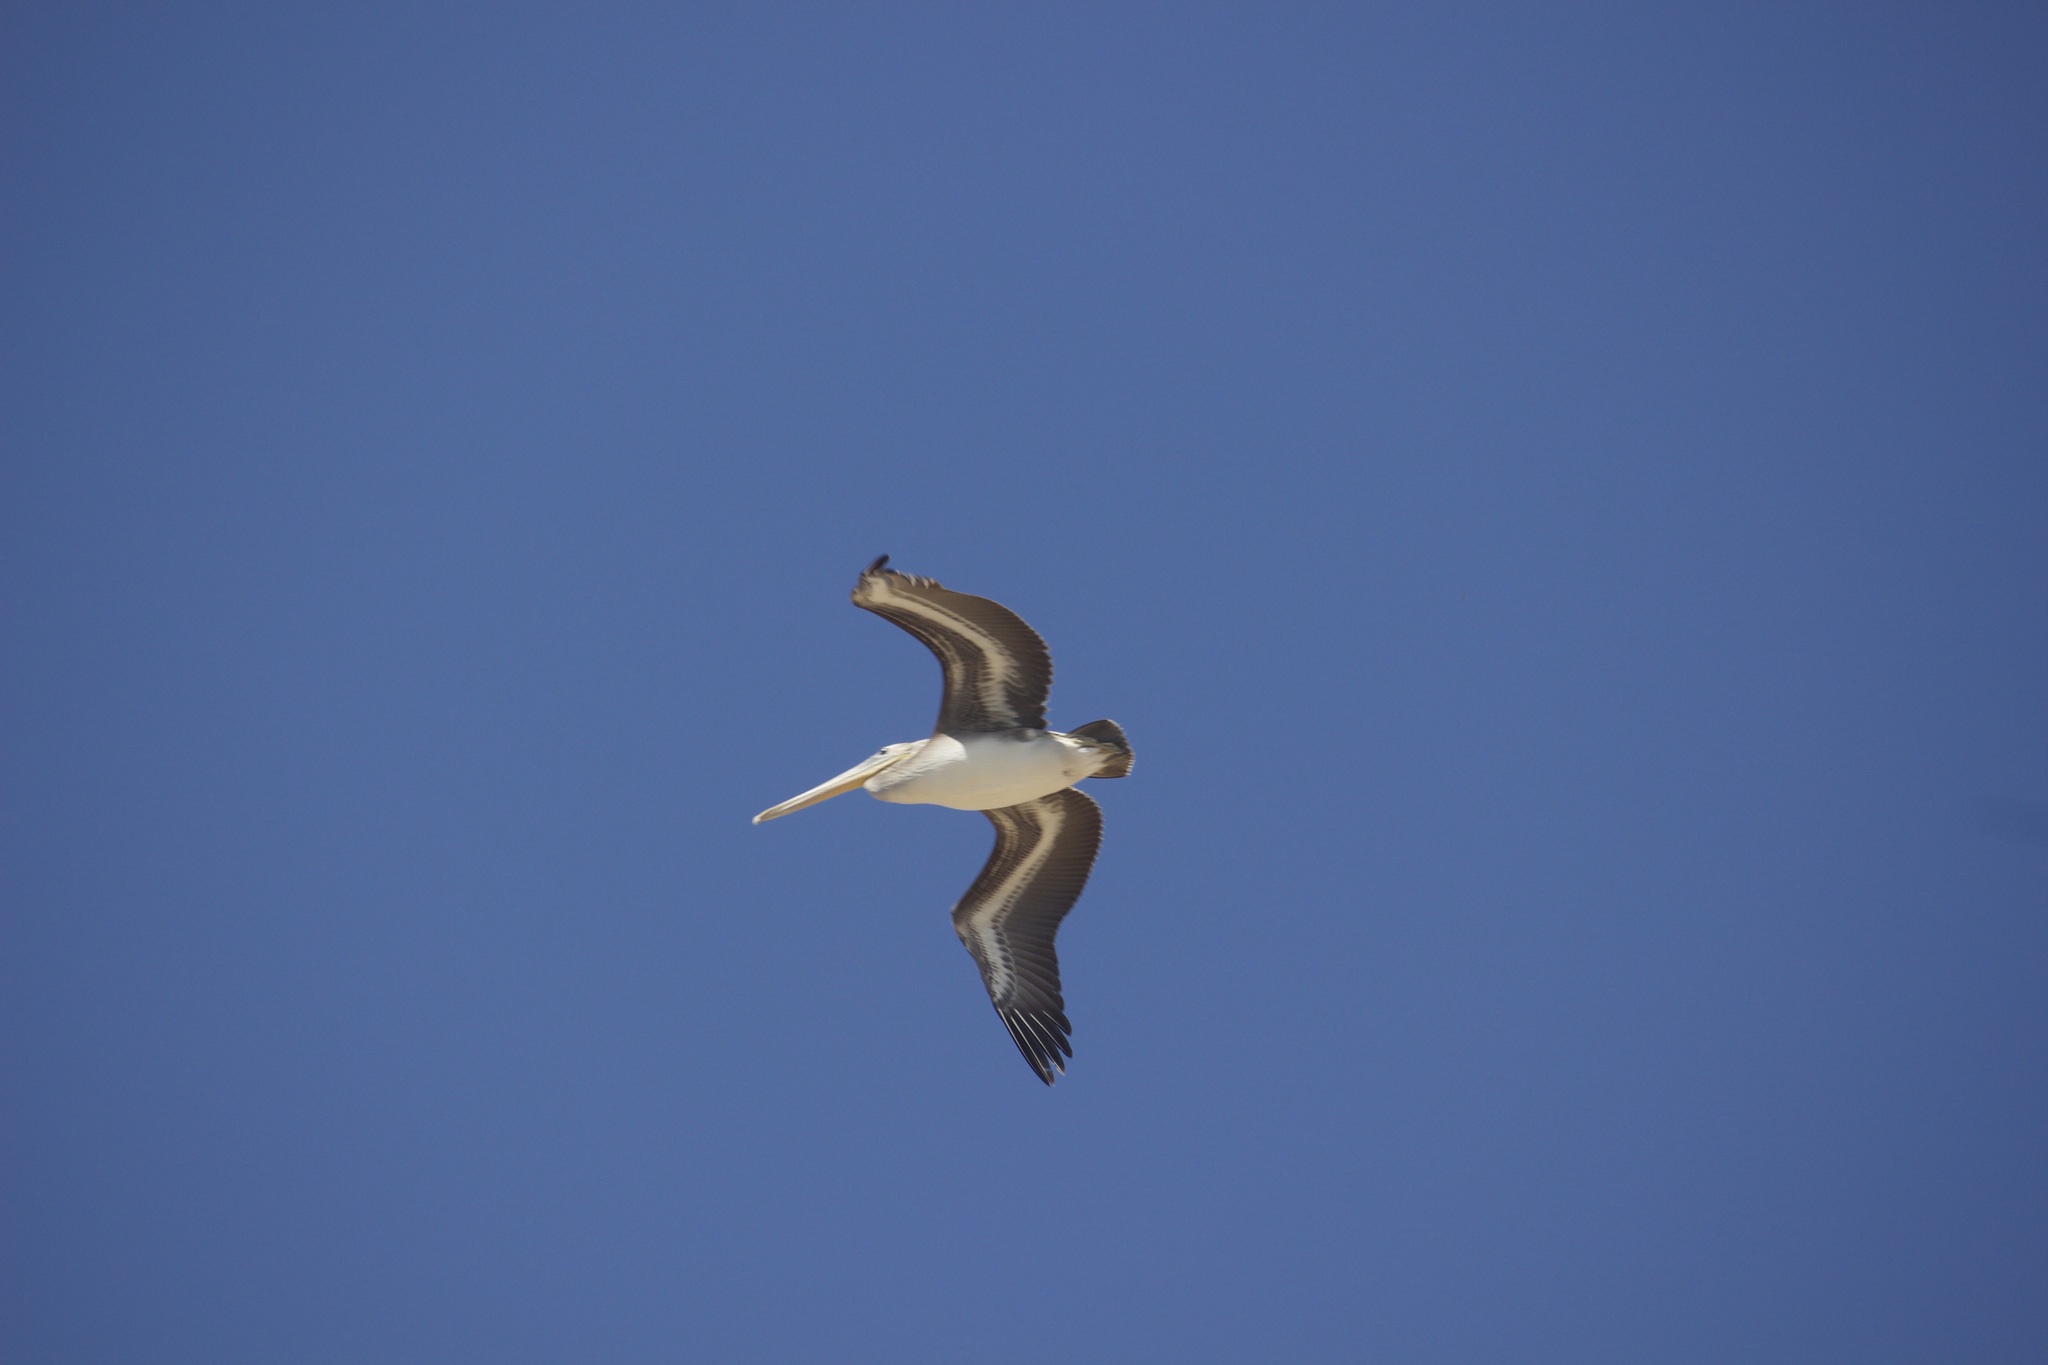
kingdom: Animalia
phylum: Chordata
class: Aves
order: Pelecaniformes
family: Pelecanidae
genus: Pelecanus
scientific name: Pelecanus occidentalis
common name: Brown pelican
